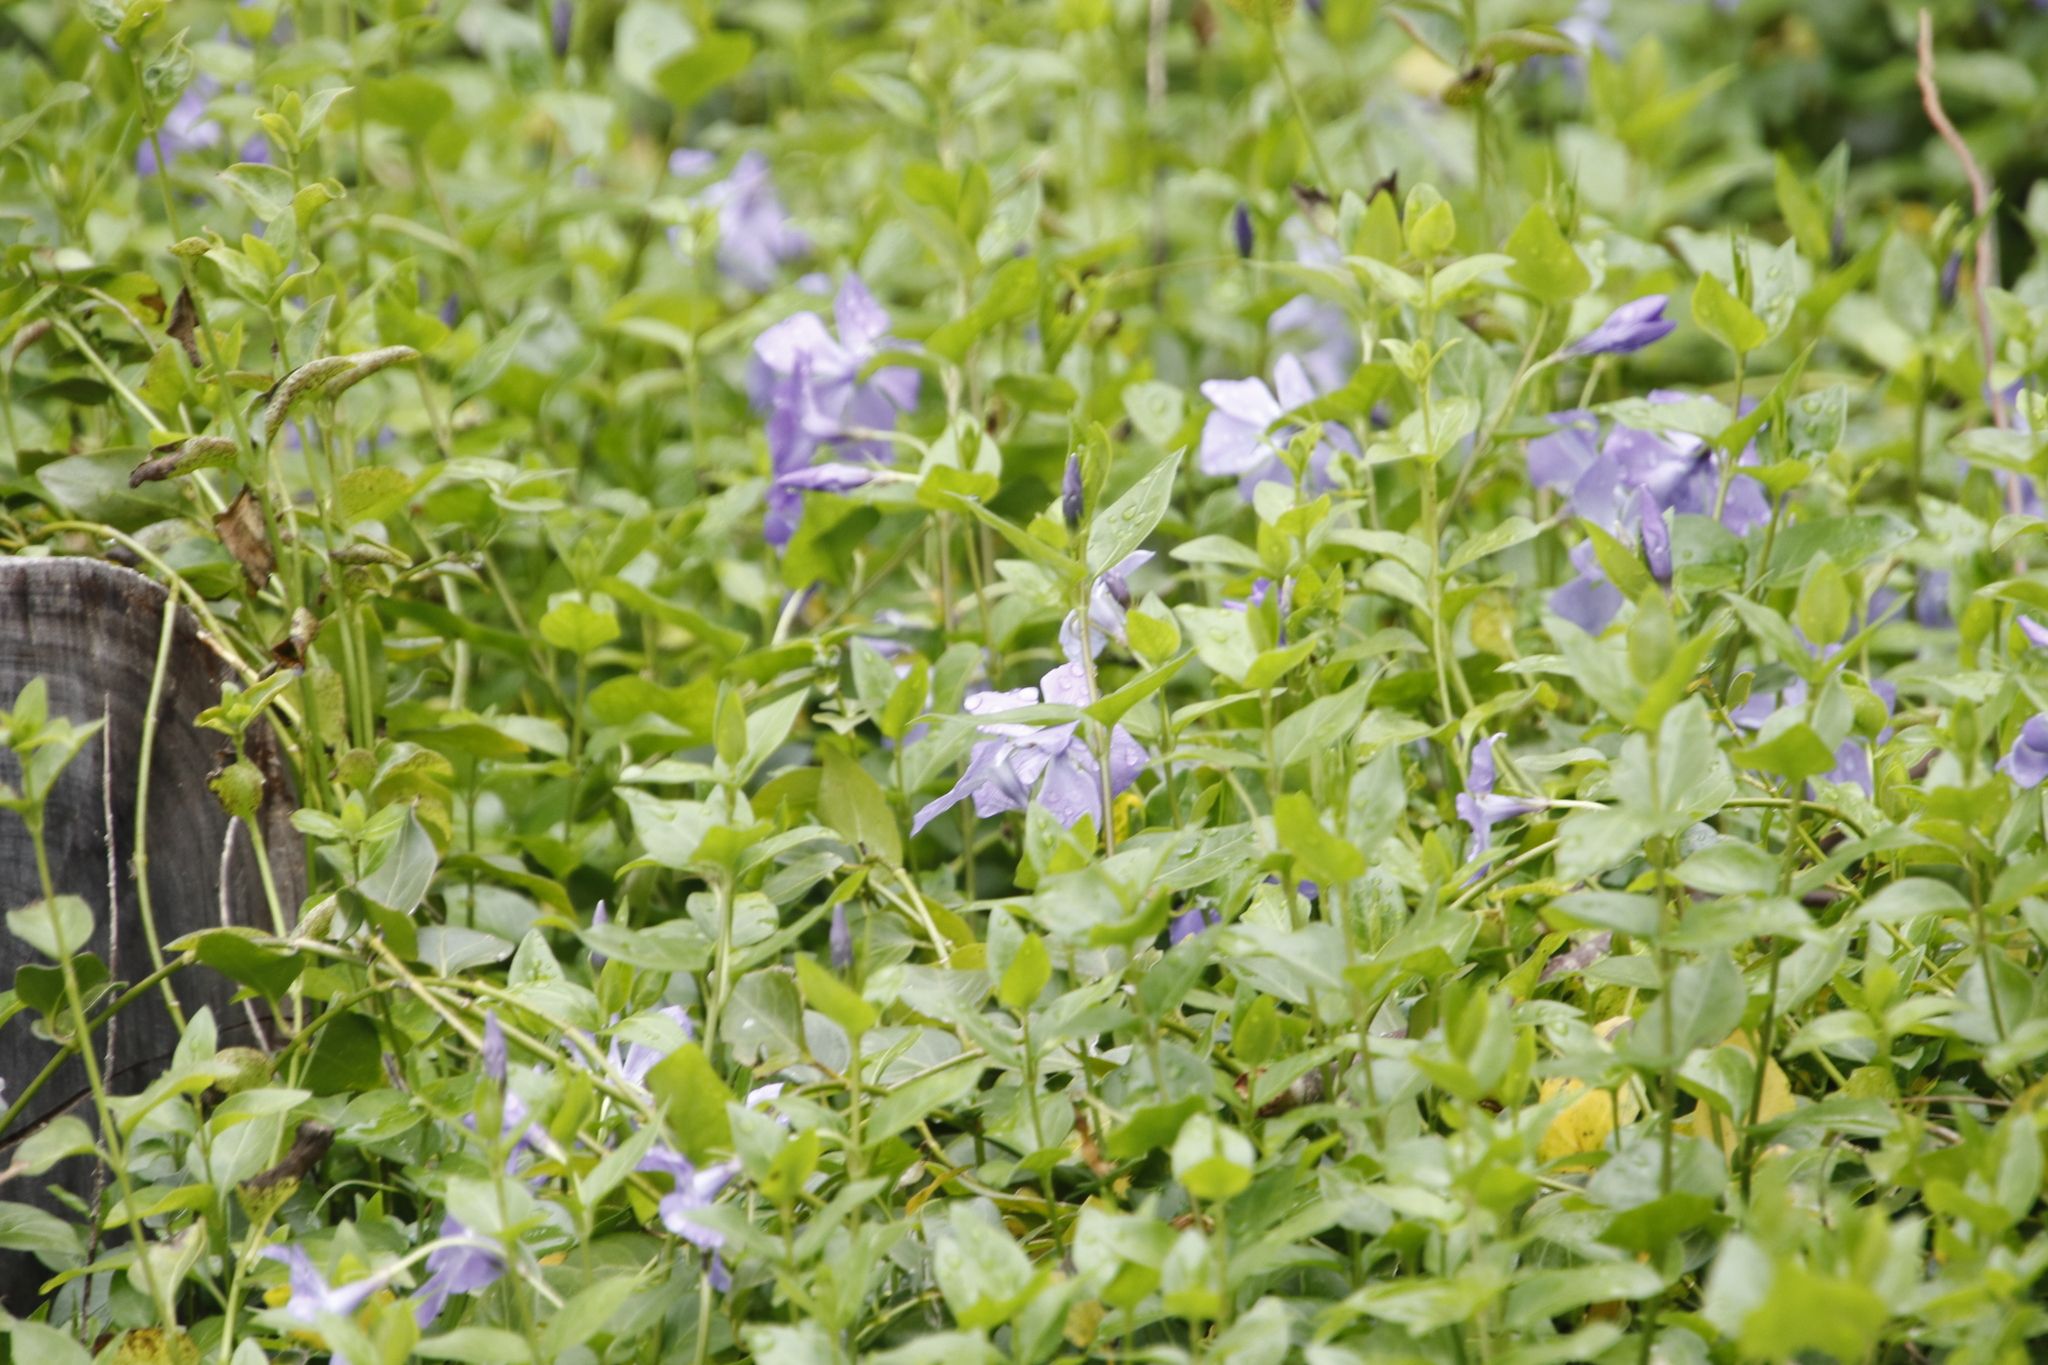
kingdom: Plantae
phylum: Tracheophyta
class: Magnoliopsida
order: Gentianales
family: Apocynaceae
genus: Vinca
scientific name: Vinca major
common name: Greater periwinkle
